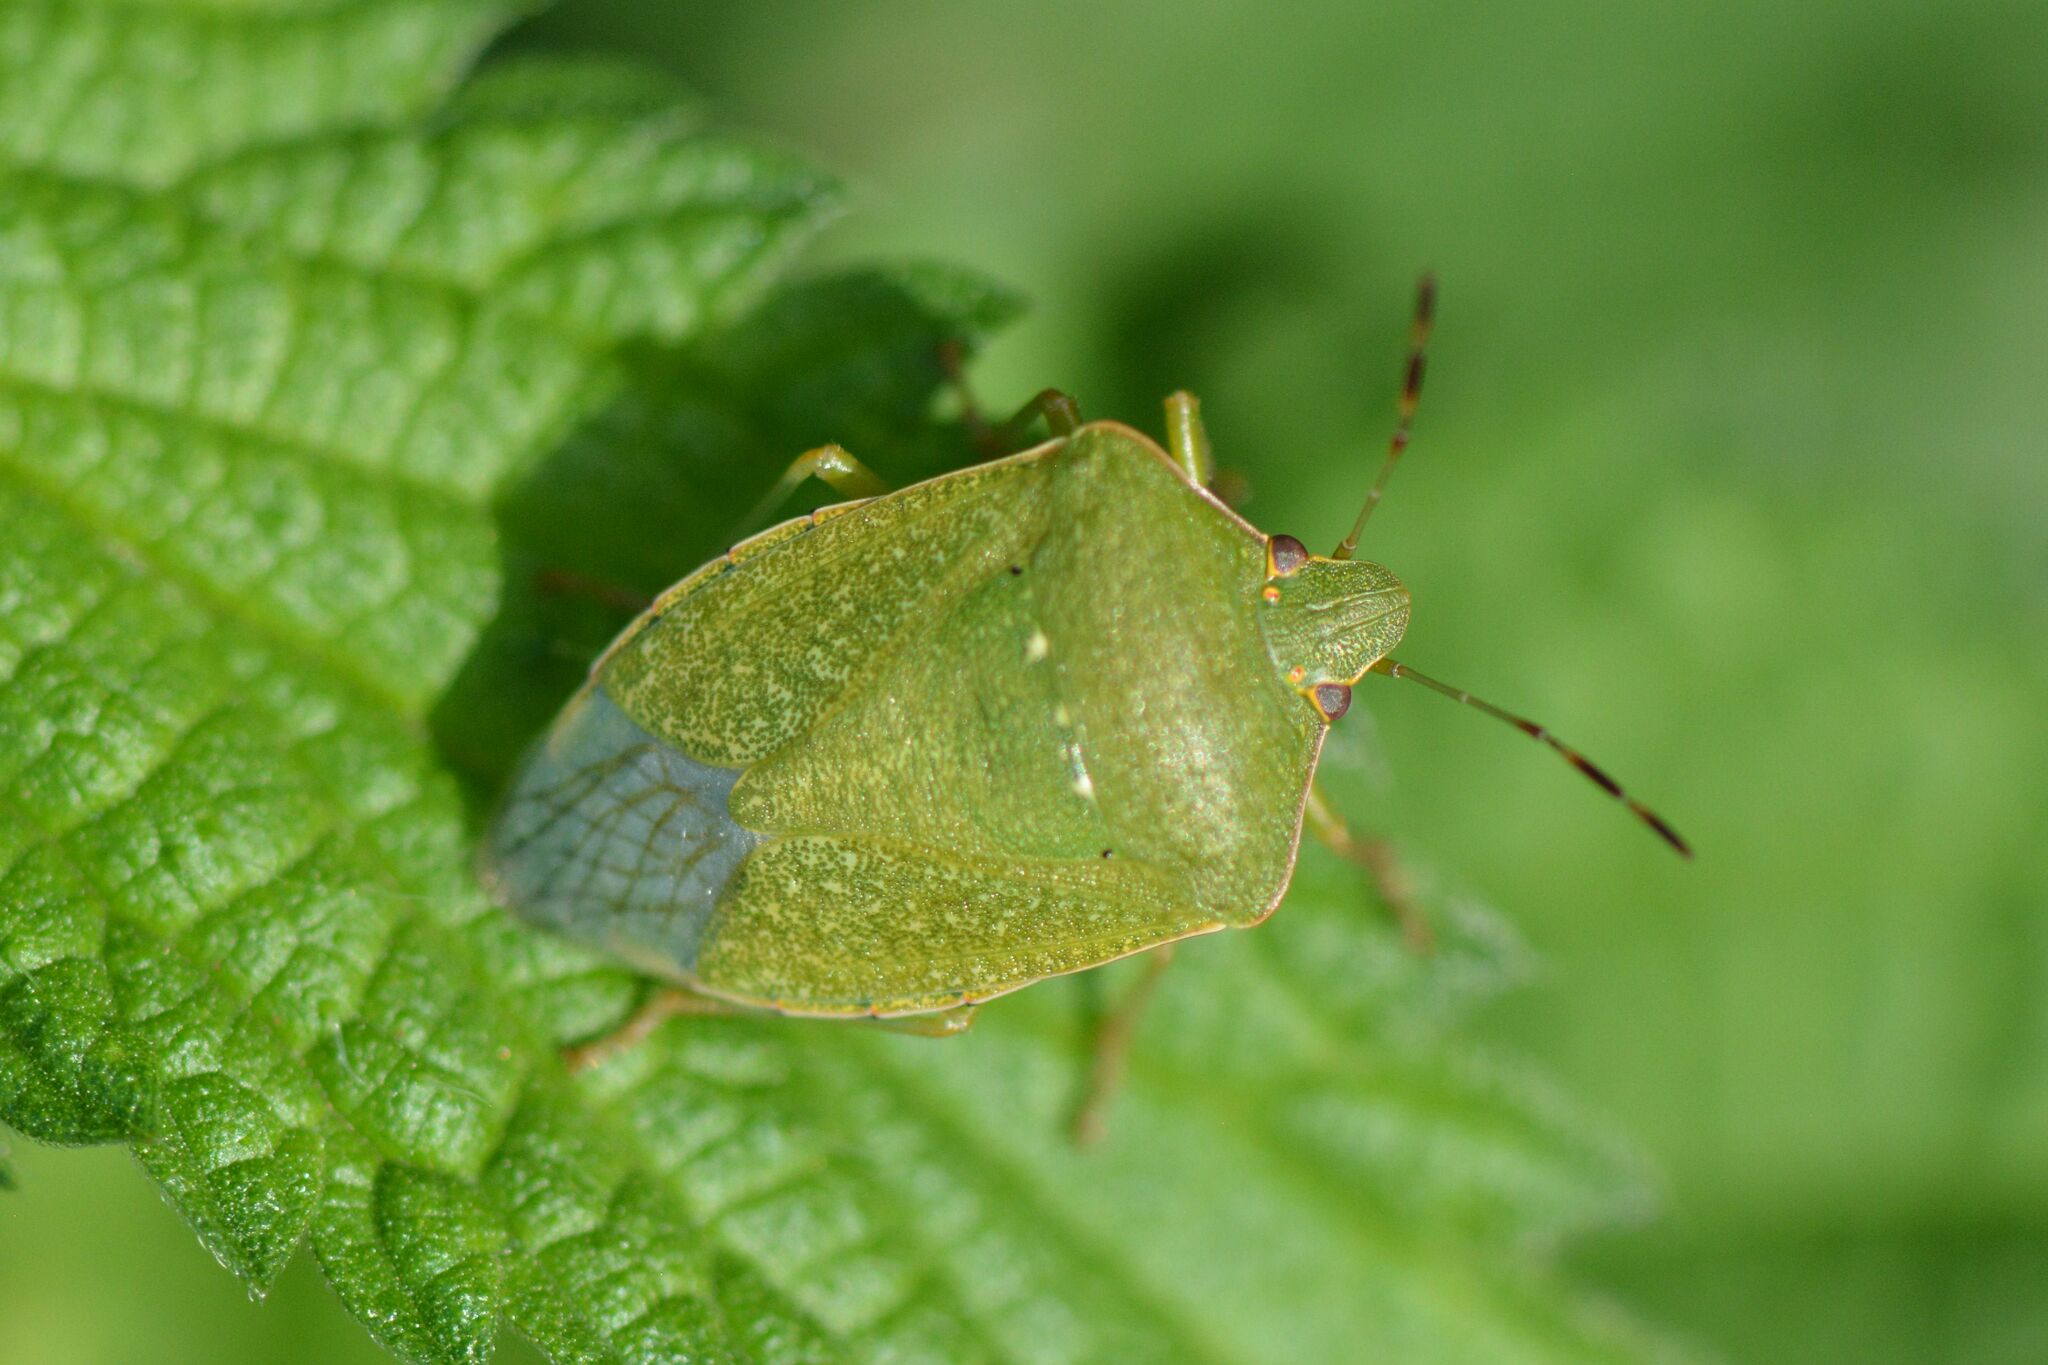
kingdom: Animalia
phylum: Arthropoda
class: Insecta
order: Hemiptera
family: Pentatomidae
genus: Nezara
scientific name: Nezara viridula
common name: Southern green stink bug
